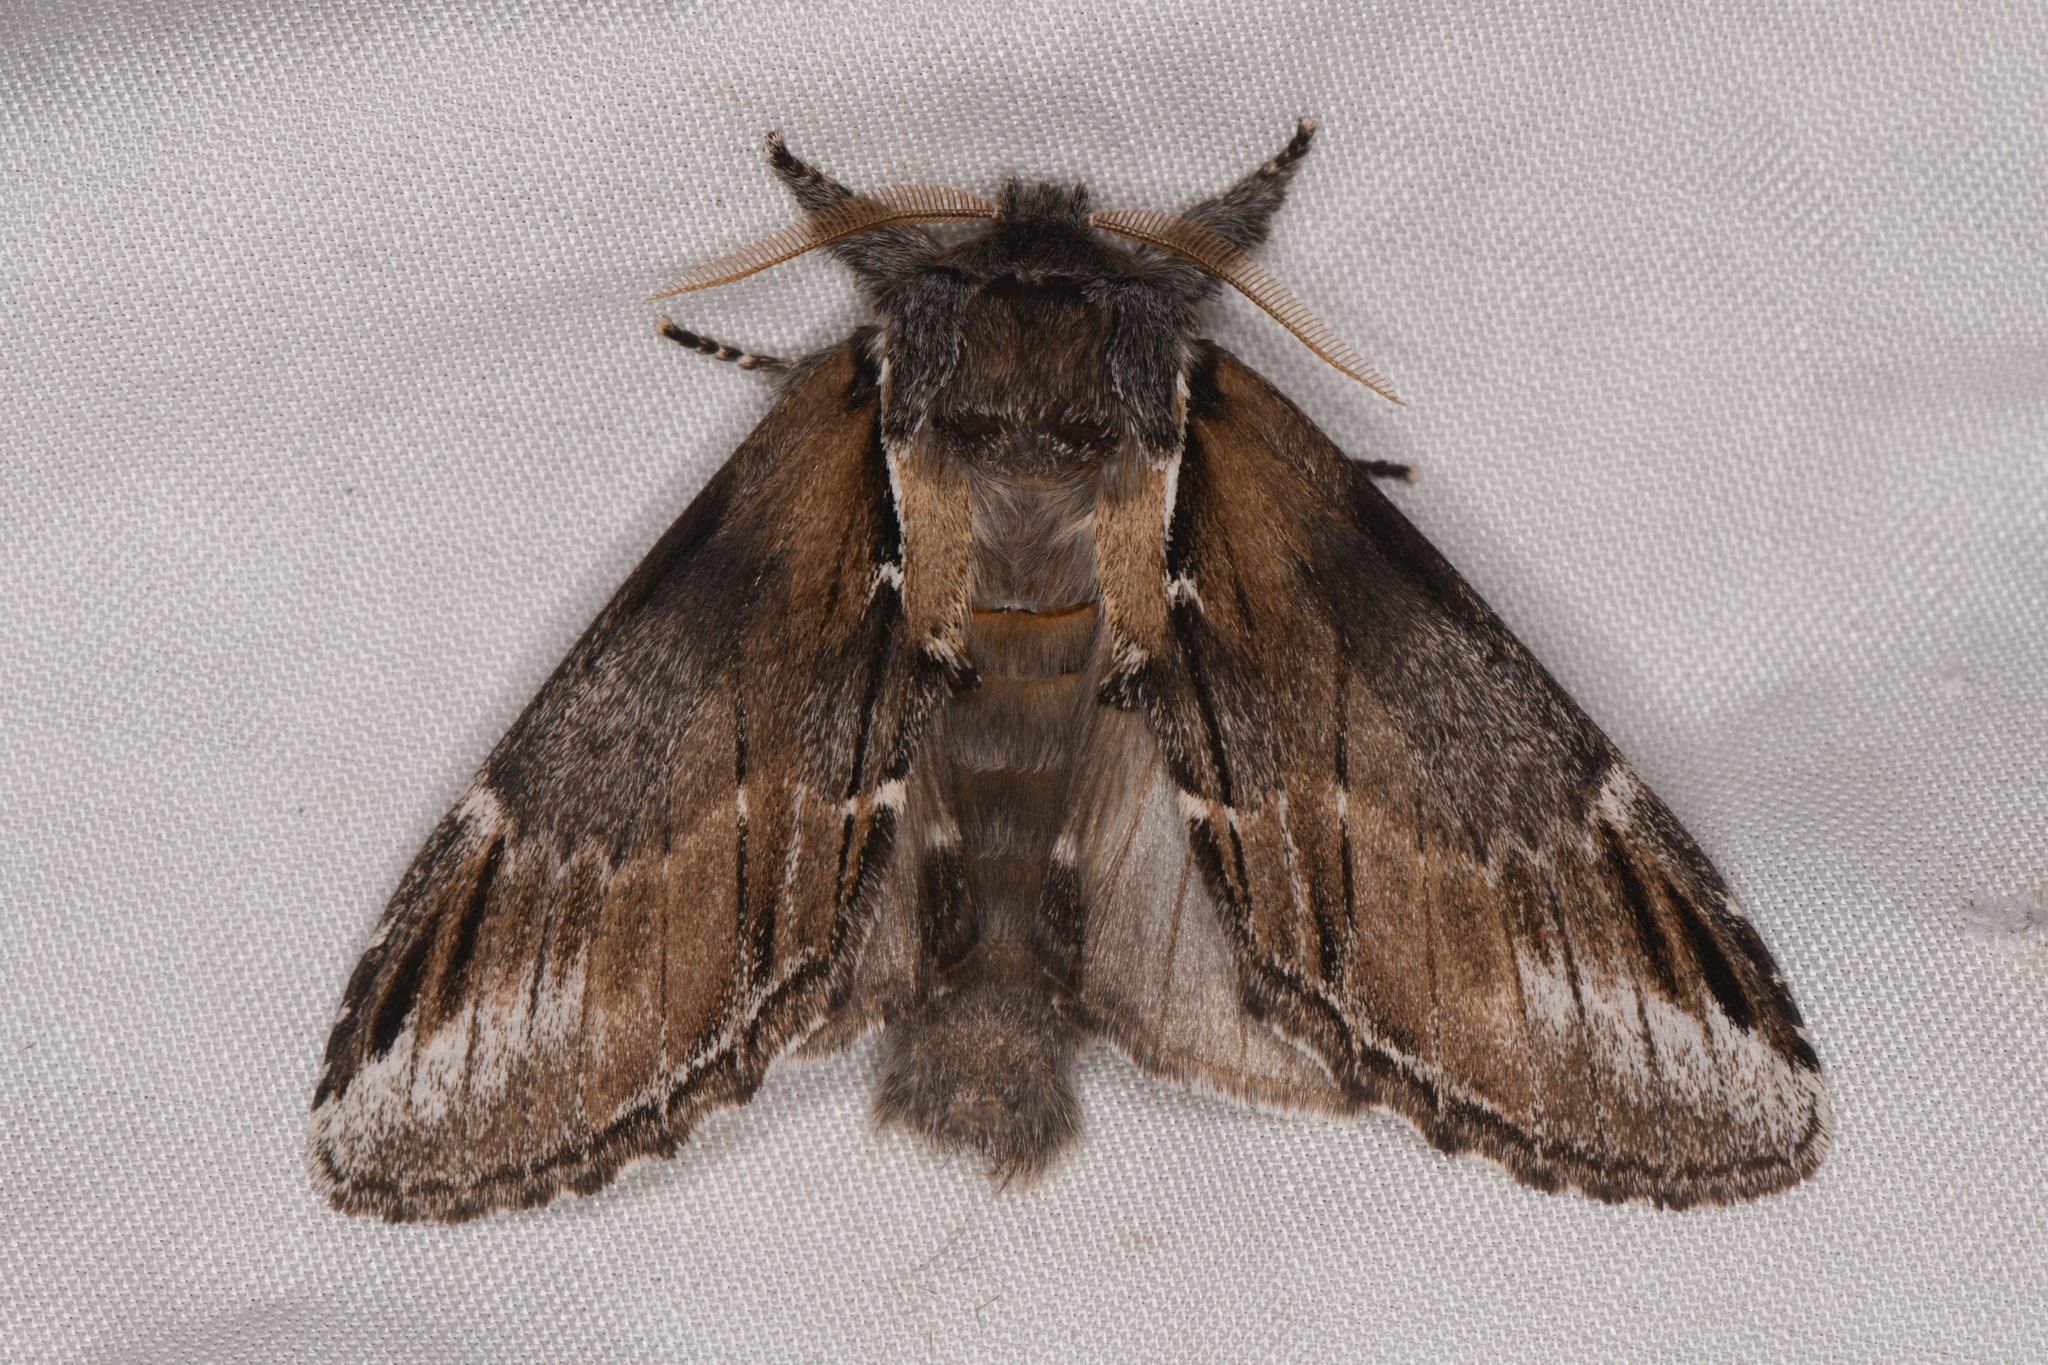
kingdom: Animalia
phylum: Arthropoda
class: Insecta
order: Lepidoptera
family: Notodontidae
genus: Pheosia
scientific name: Pheosia rimosa
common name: Black-rimmed prominent
